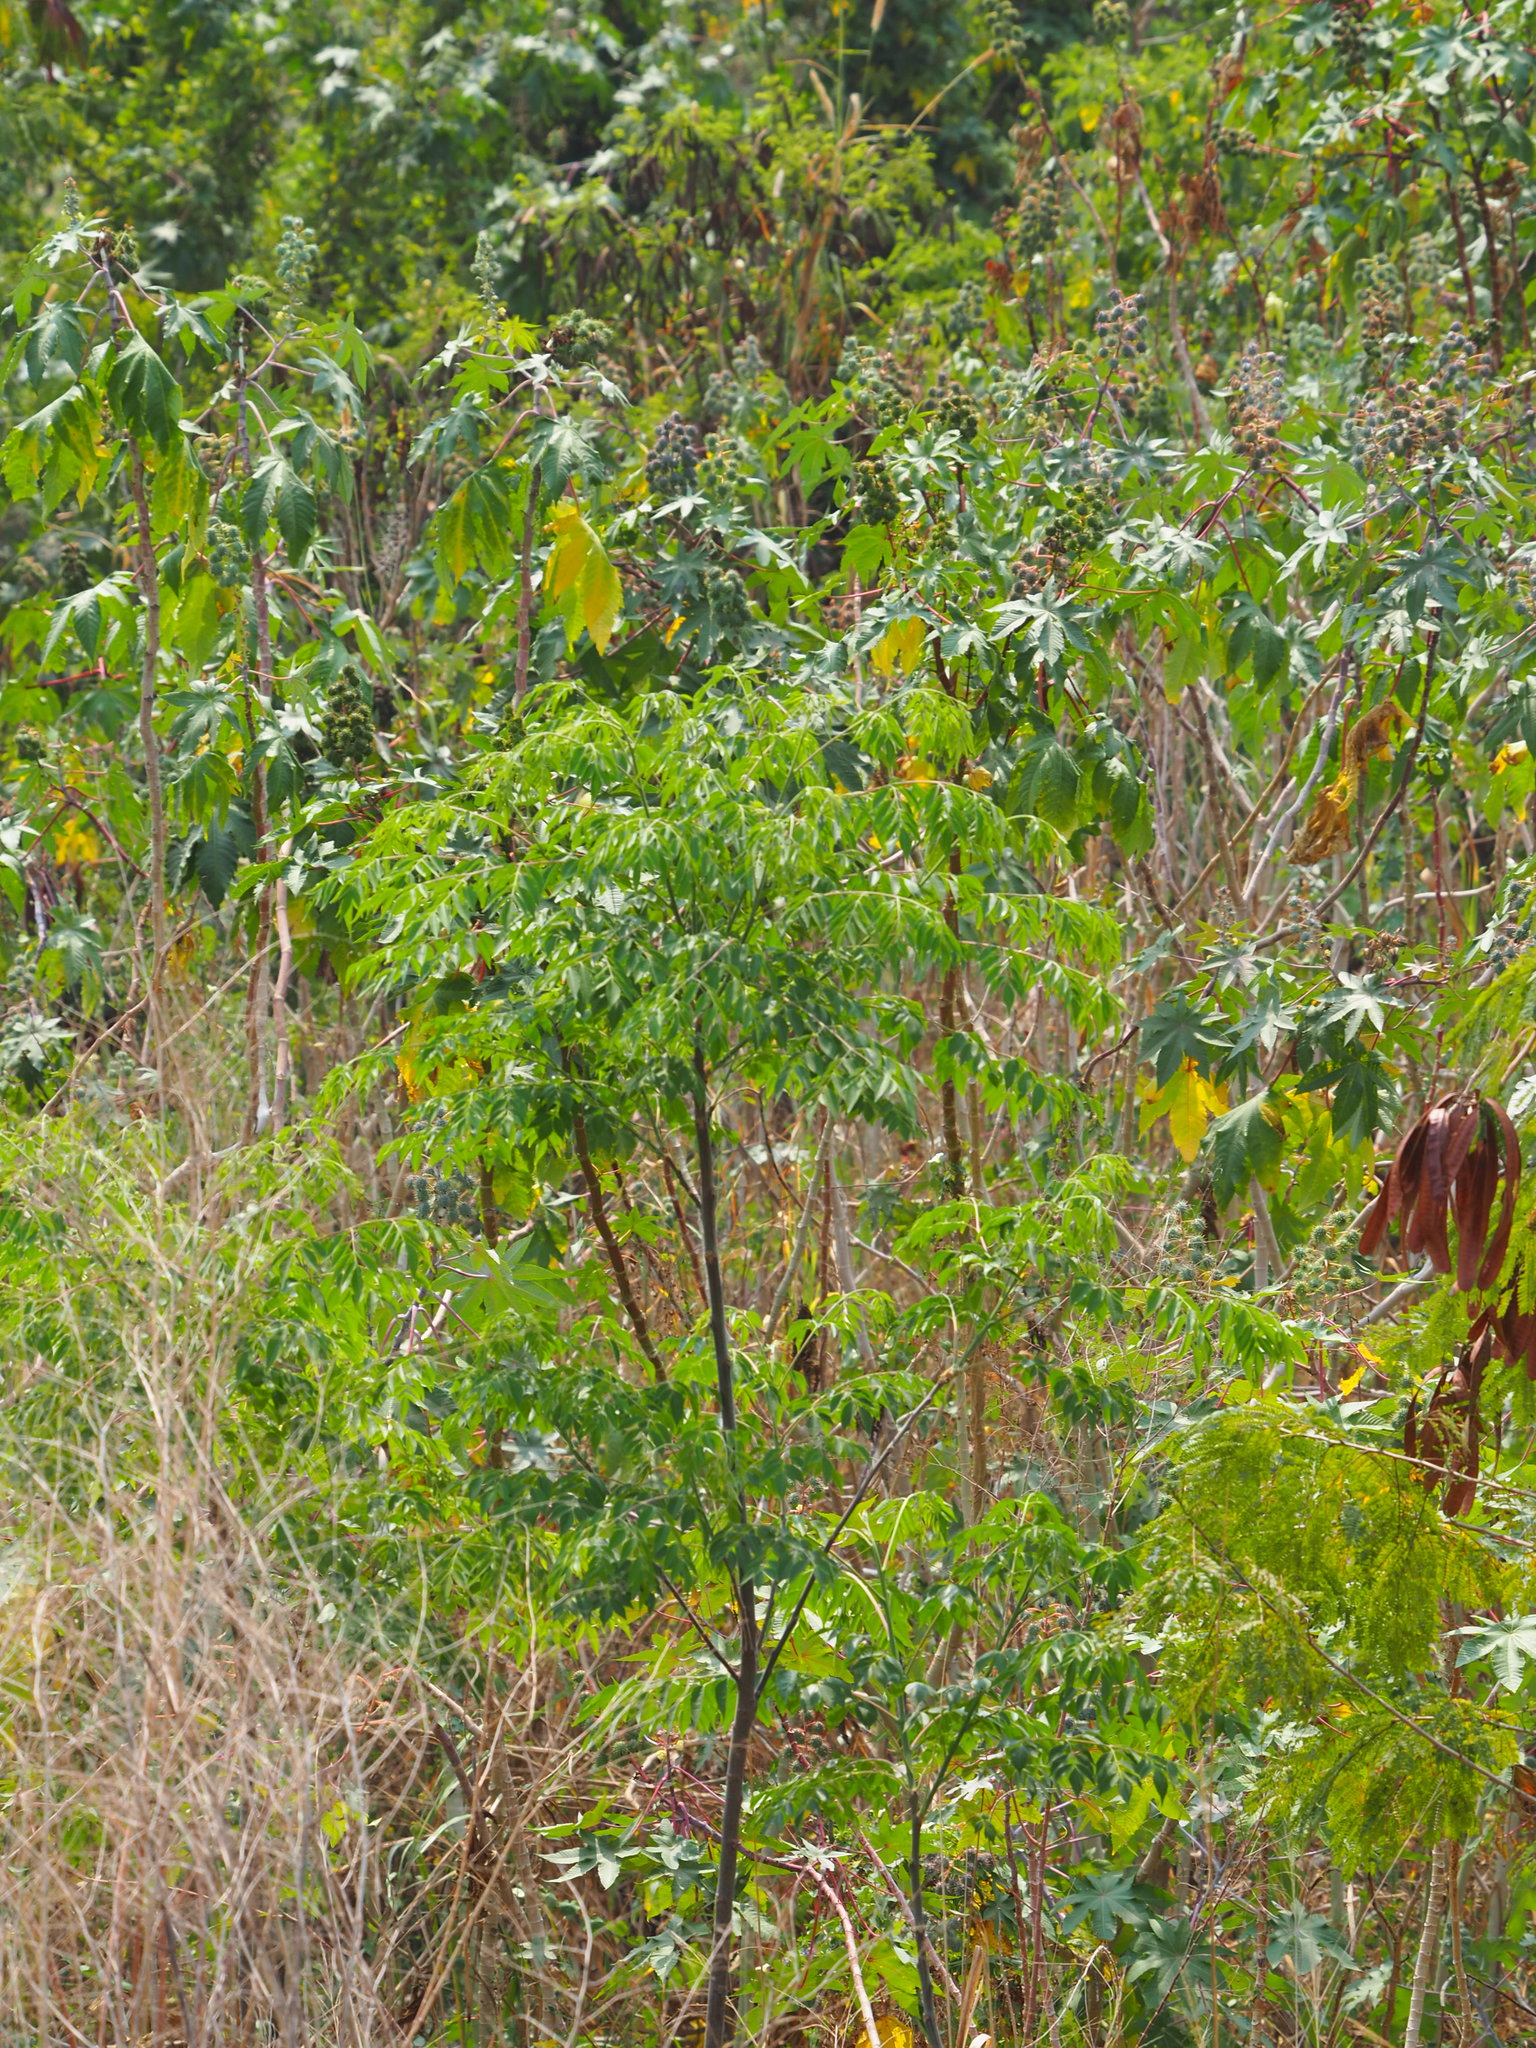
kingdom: Plantae
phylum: Tracheophyta
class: Magnoliopsida
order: Sapindales
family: Meliaceae
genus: Melia
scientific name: Melia azedarach
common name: Chinaberrytree
